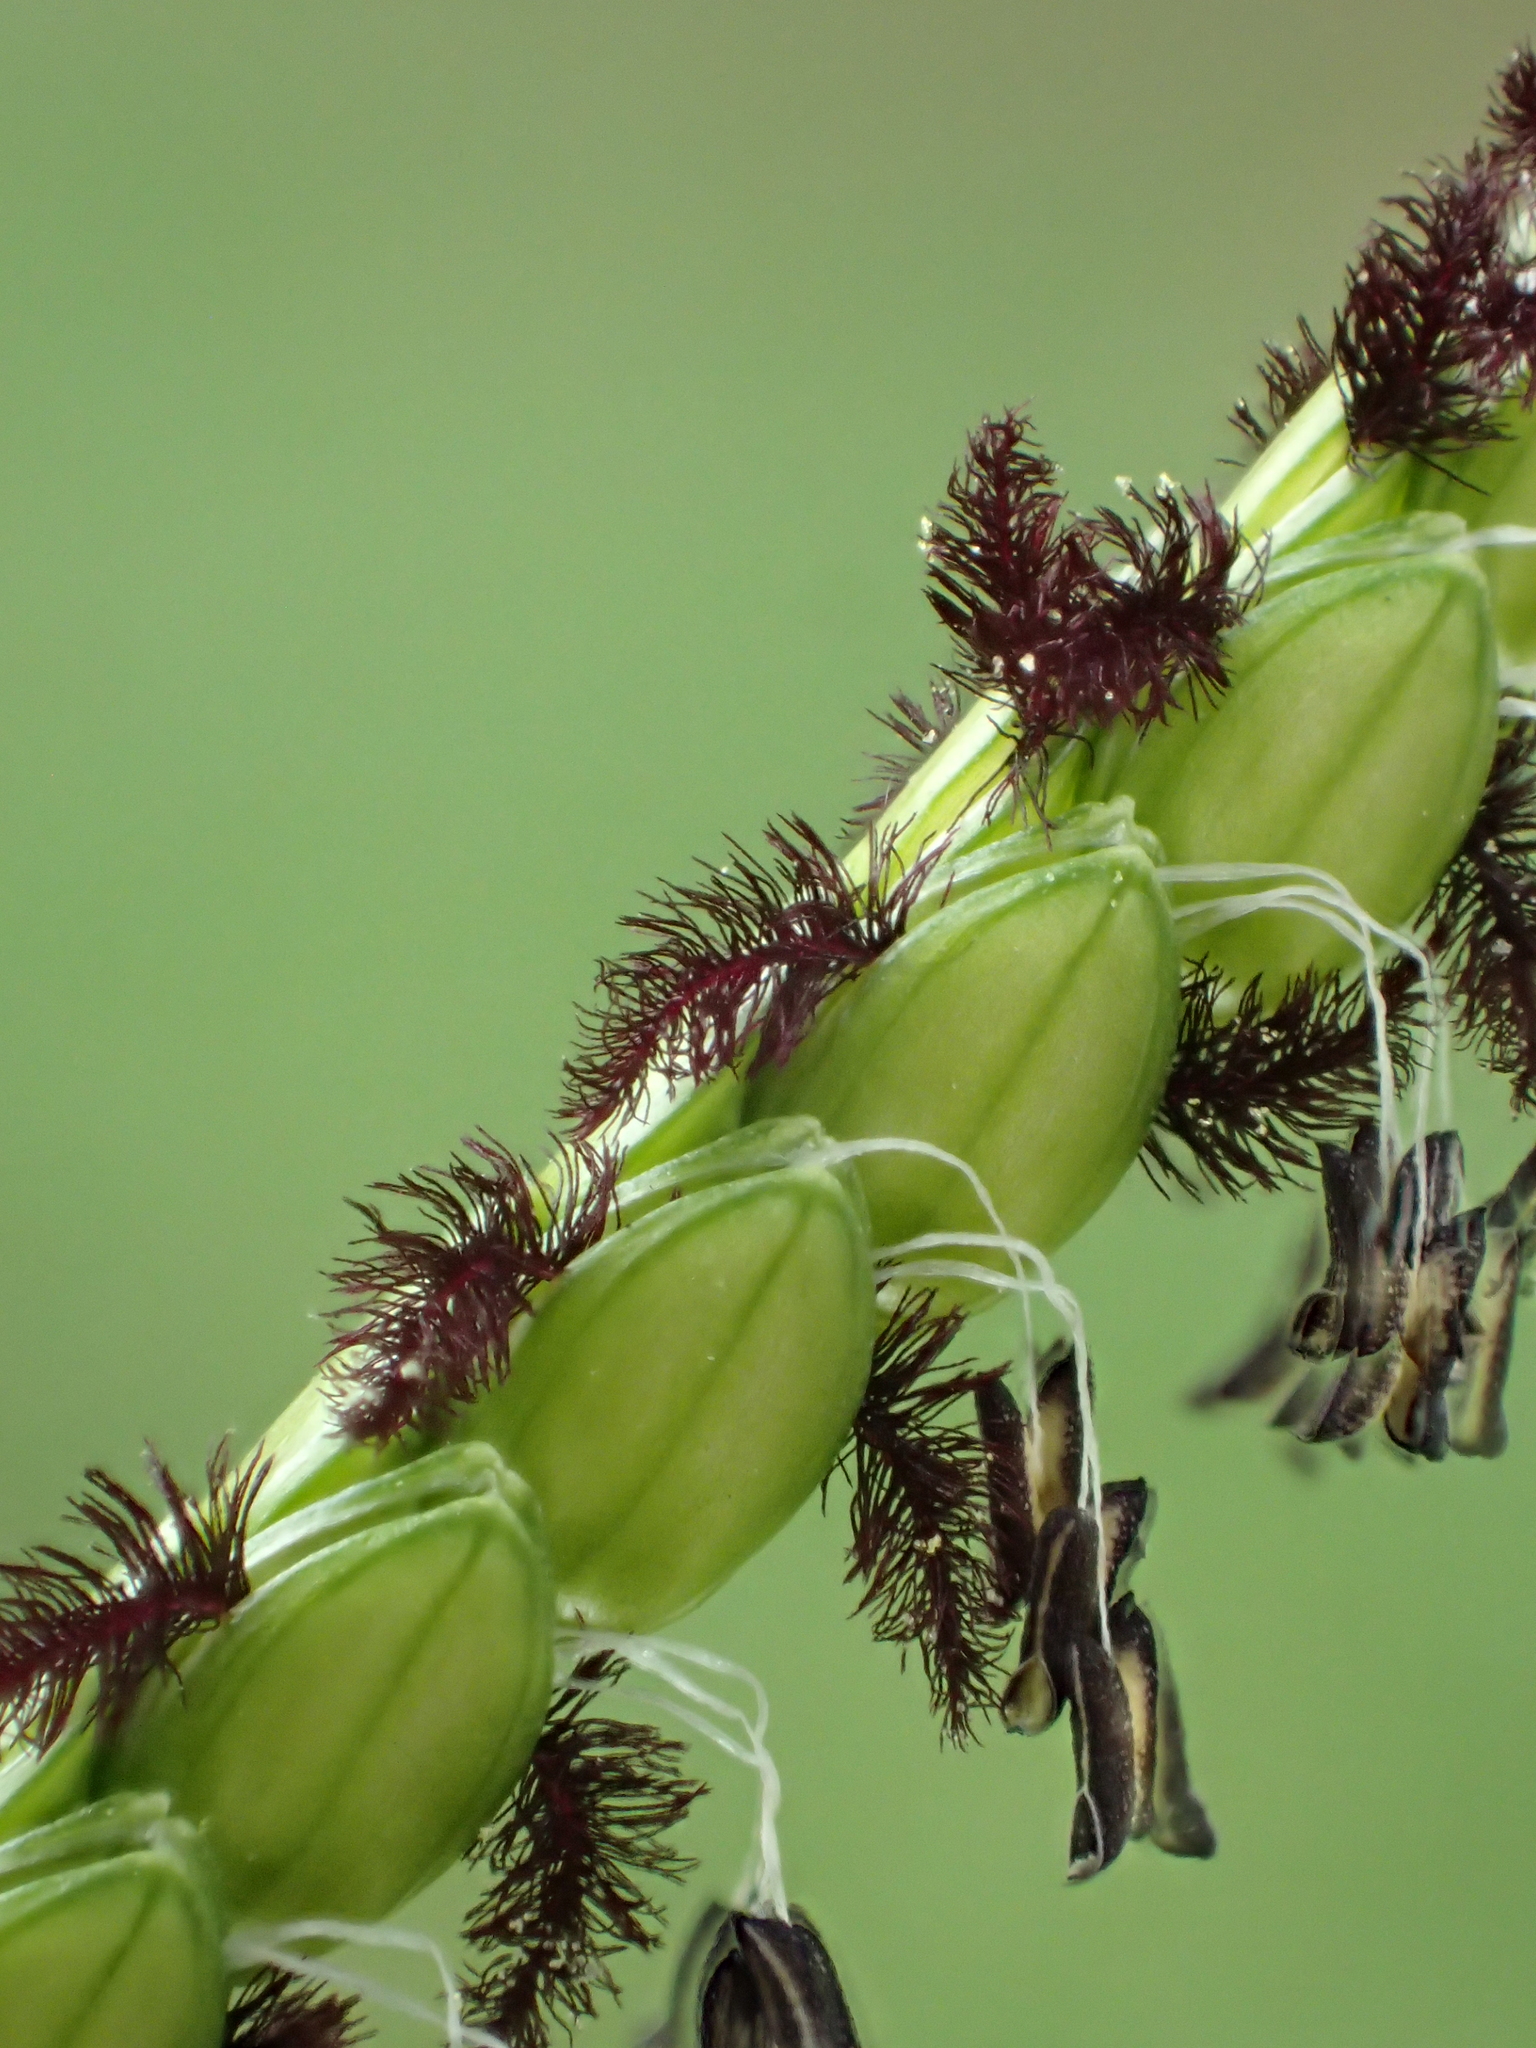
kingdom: Plantae
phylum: Tracheophyta
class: Liliopsida
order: Poales
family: Poaceae
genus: Paspalum
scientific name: Paspalum orbiculare
